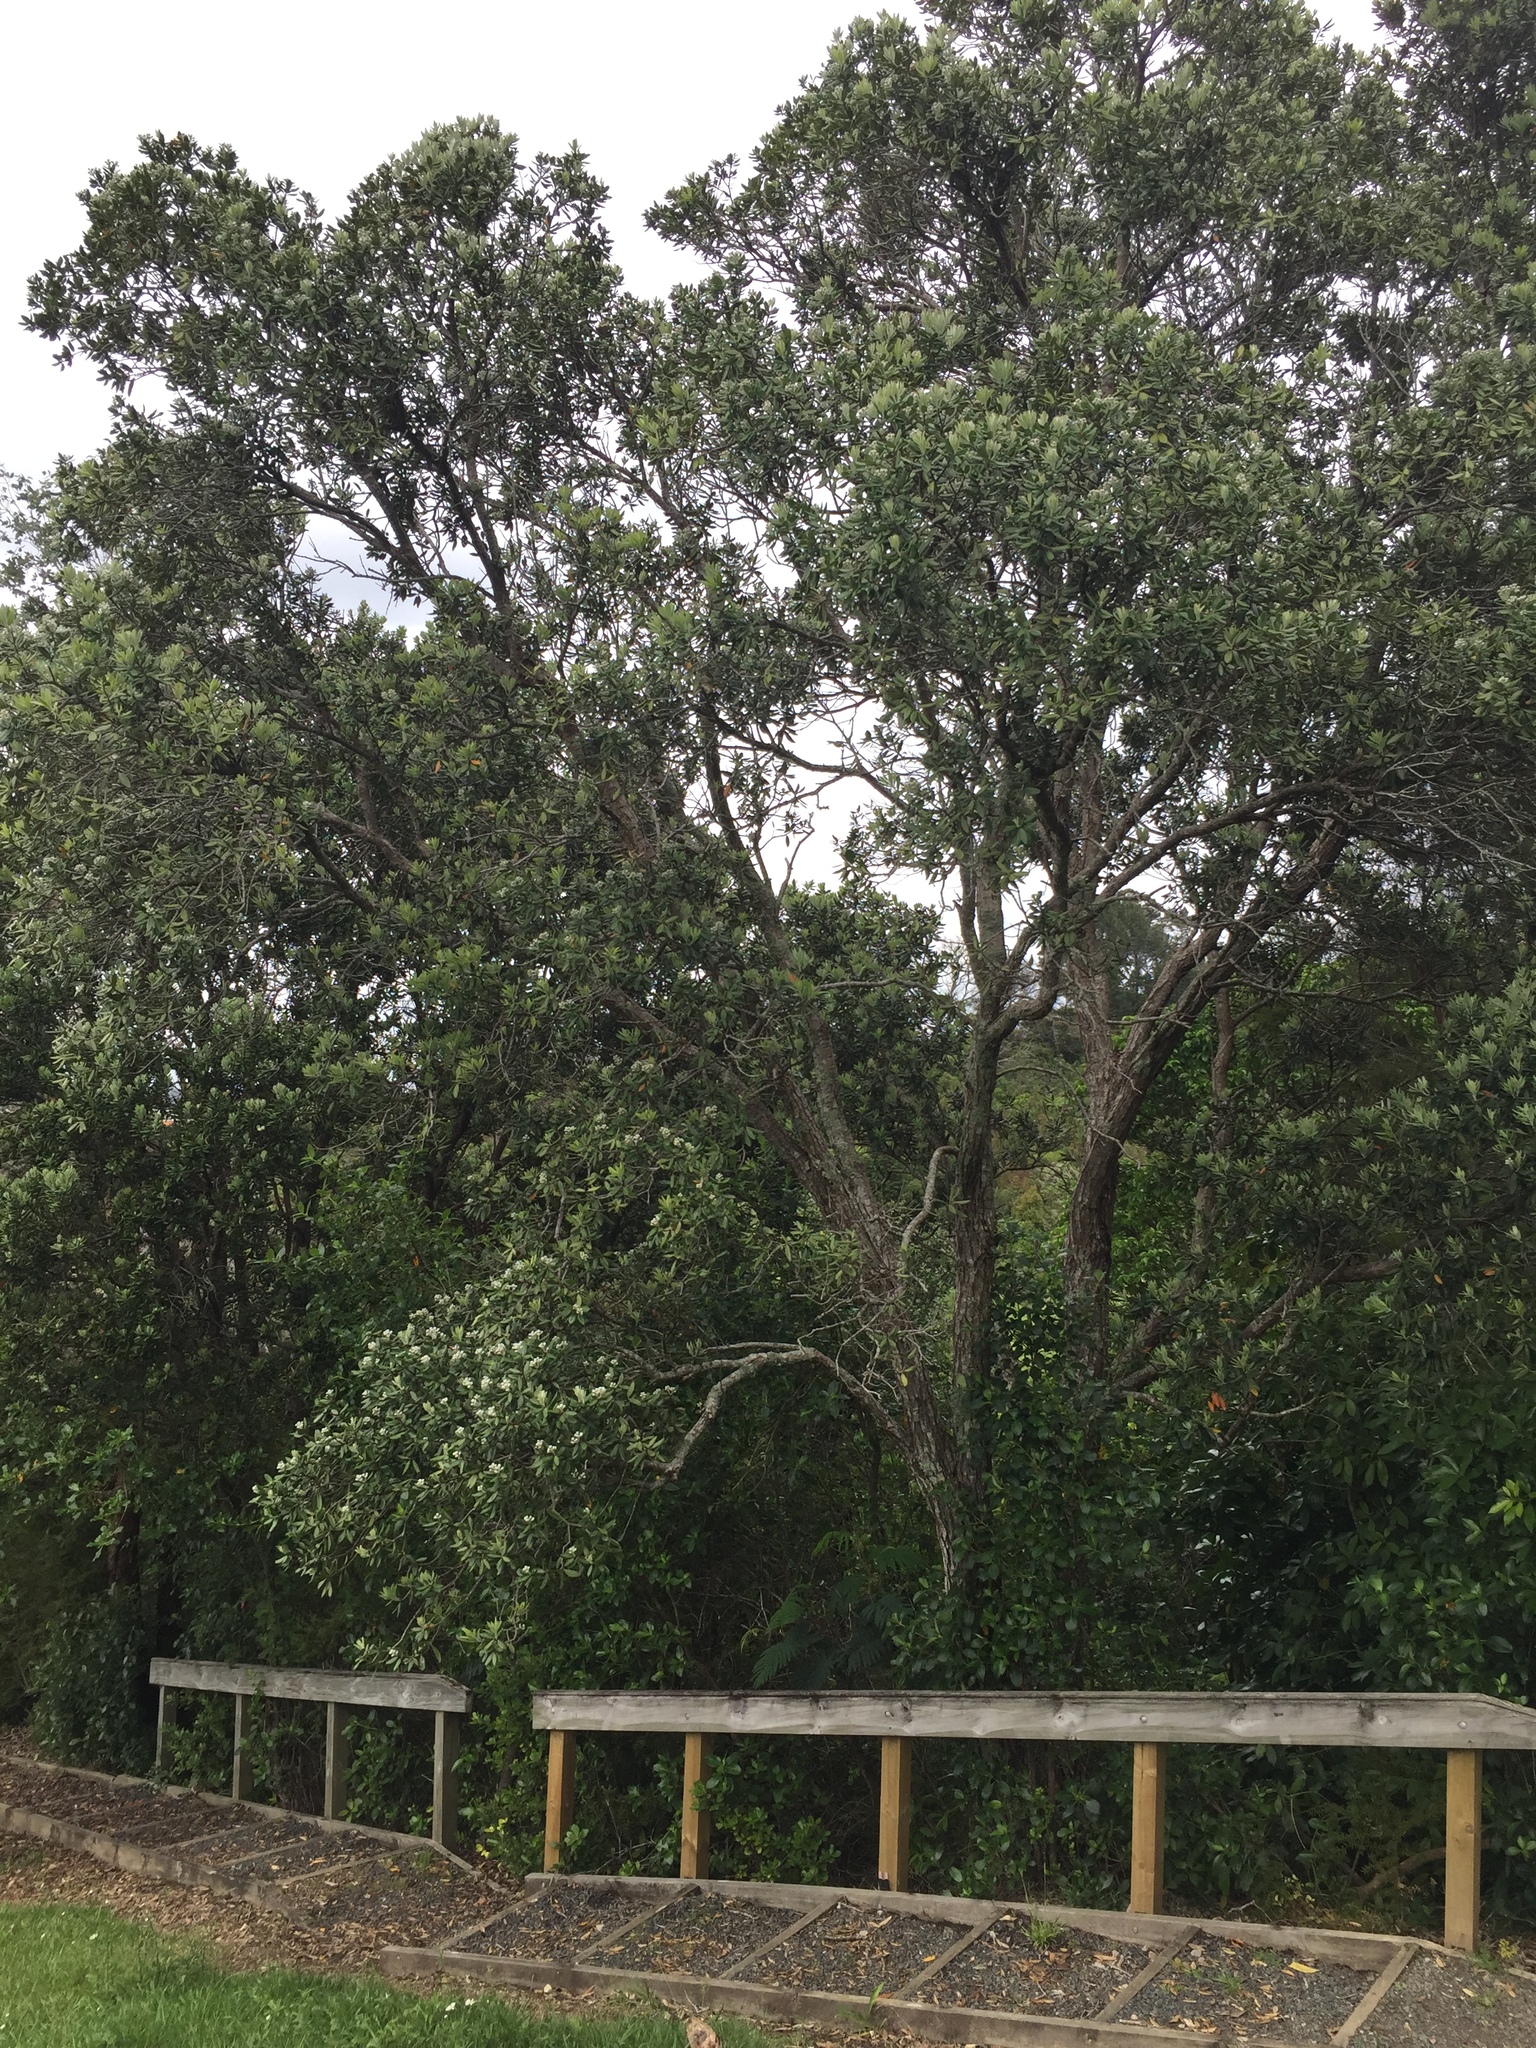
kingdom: Fungi
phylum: Basidiomycota
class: Pucciniomycetes
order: Pucciniales
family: Sphaerophragmiaceae
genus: Austropuccinia
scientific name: Austropuccinia psidii
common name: Myrtle rust
